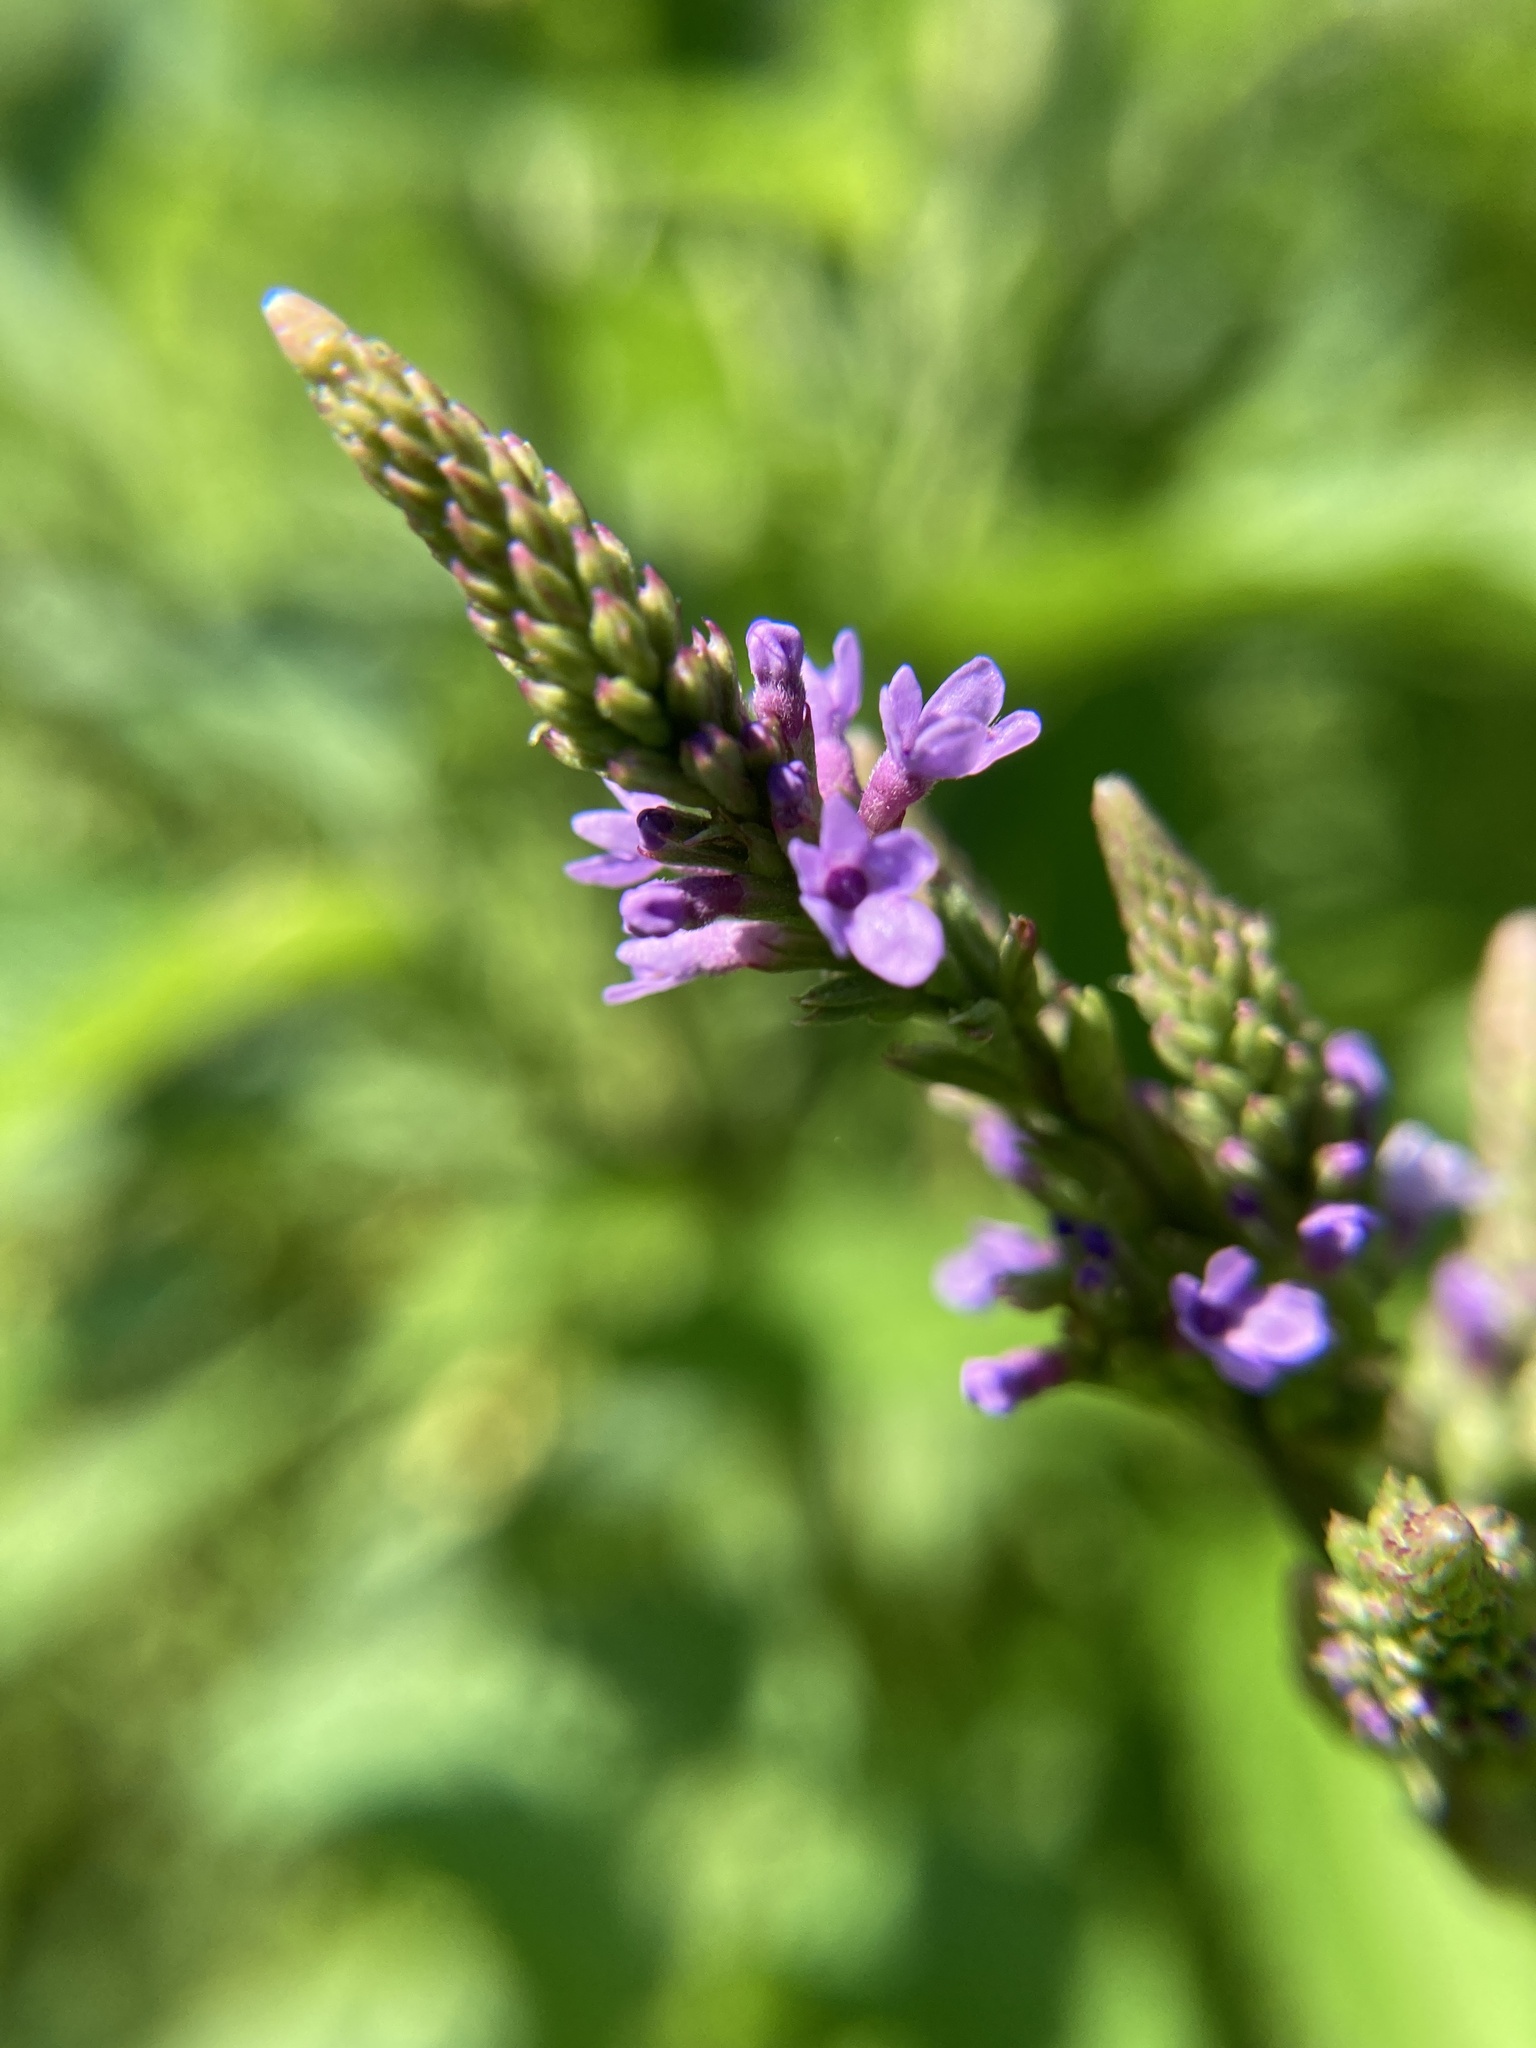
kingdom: Plantae
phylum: Tracheophyta
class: Magnoliopsida
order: Lamiales
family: Verbenaceae
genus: Verbena
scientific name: Verbena hastata
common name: American blue vervain
